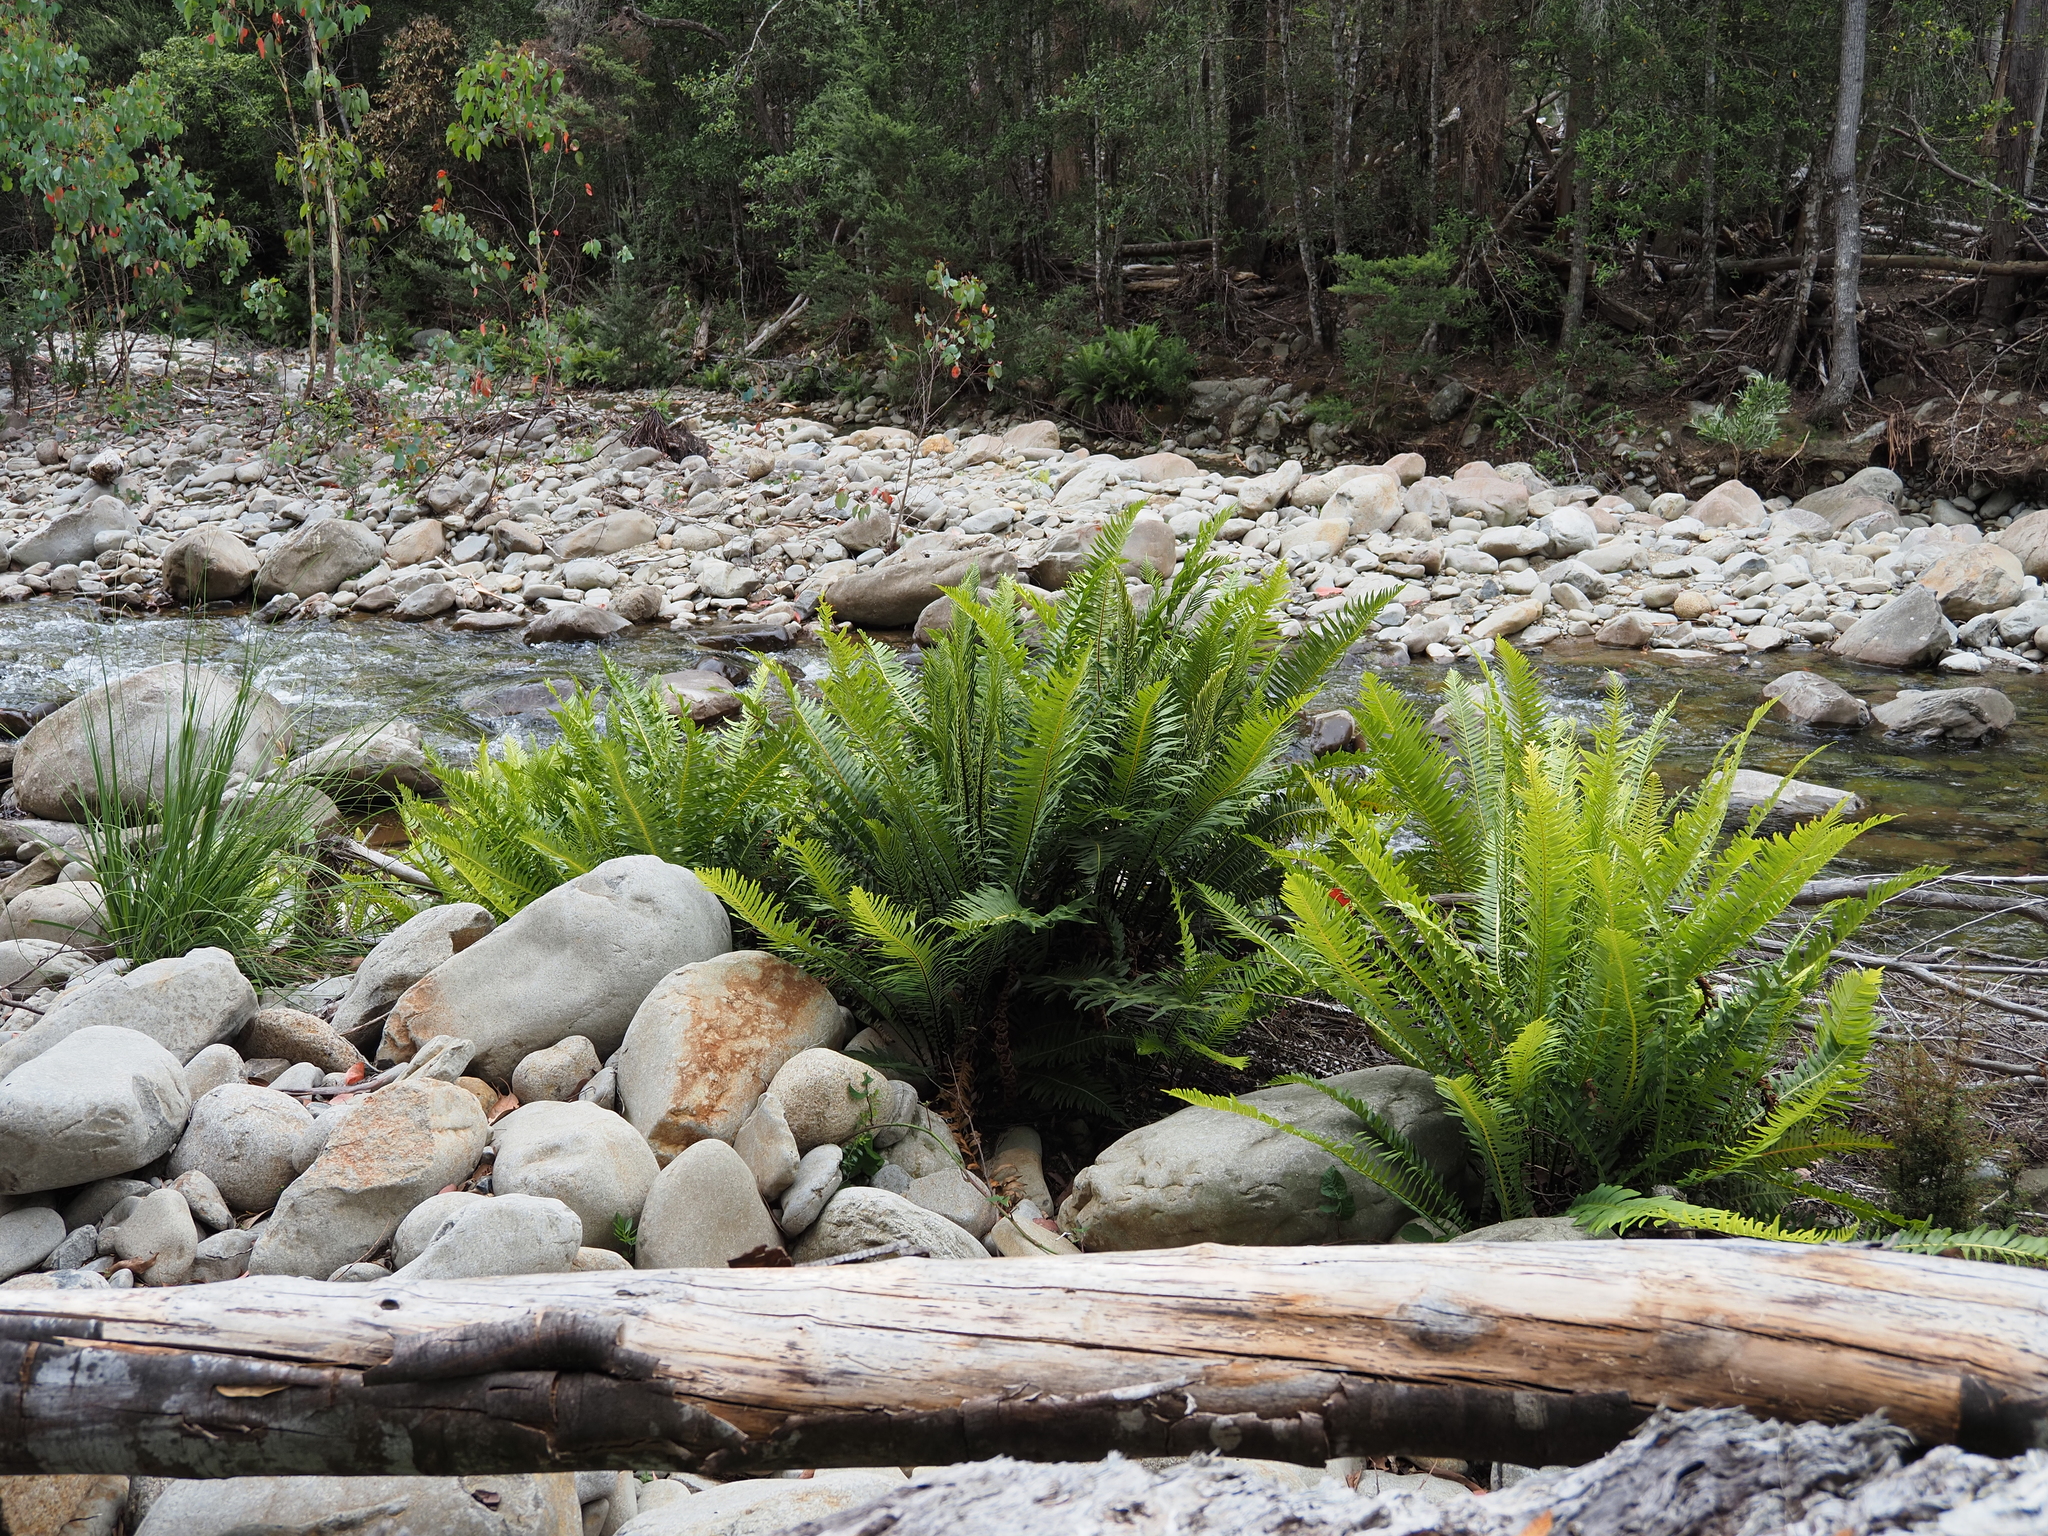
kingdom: Plantae
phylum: Tracheophyta
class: Polypodiopsida
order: Polypodiales
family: Blechnaceae
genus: Lomaria
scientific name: Lomaria nuda
